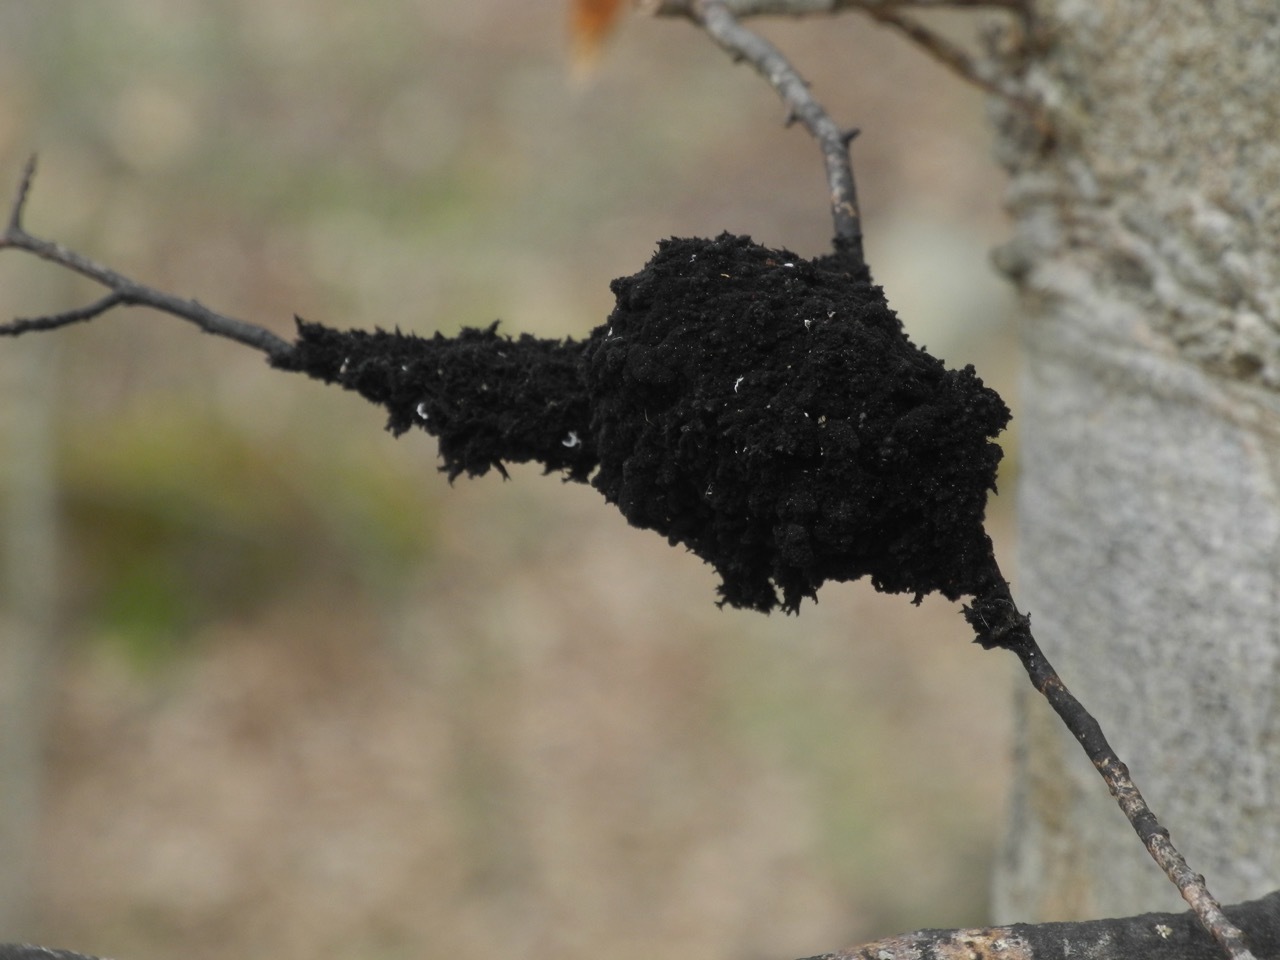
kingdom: Fungi
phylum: Ascomycota
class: Dothideomycetes
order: Capnodiales
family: Capnodiaceae
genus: Scorias
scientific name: Scorias spongiosa
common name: Black sooty mold
